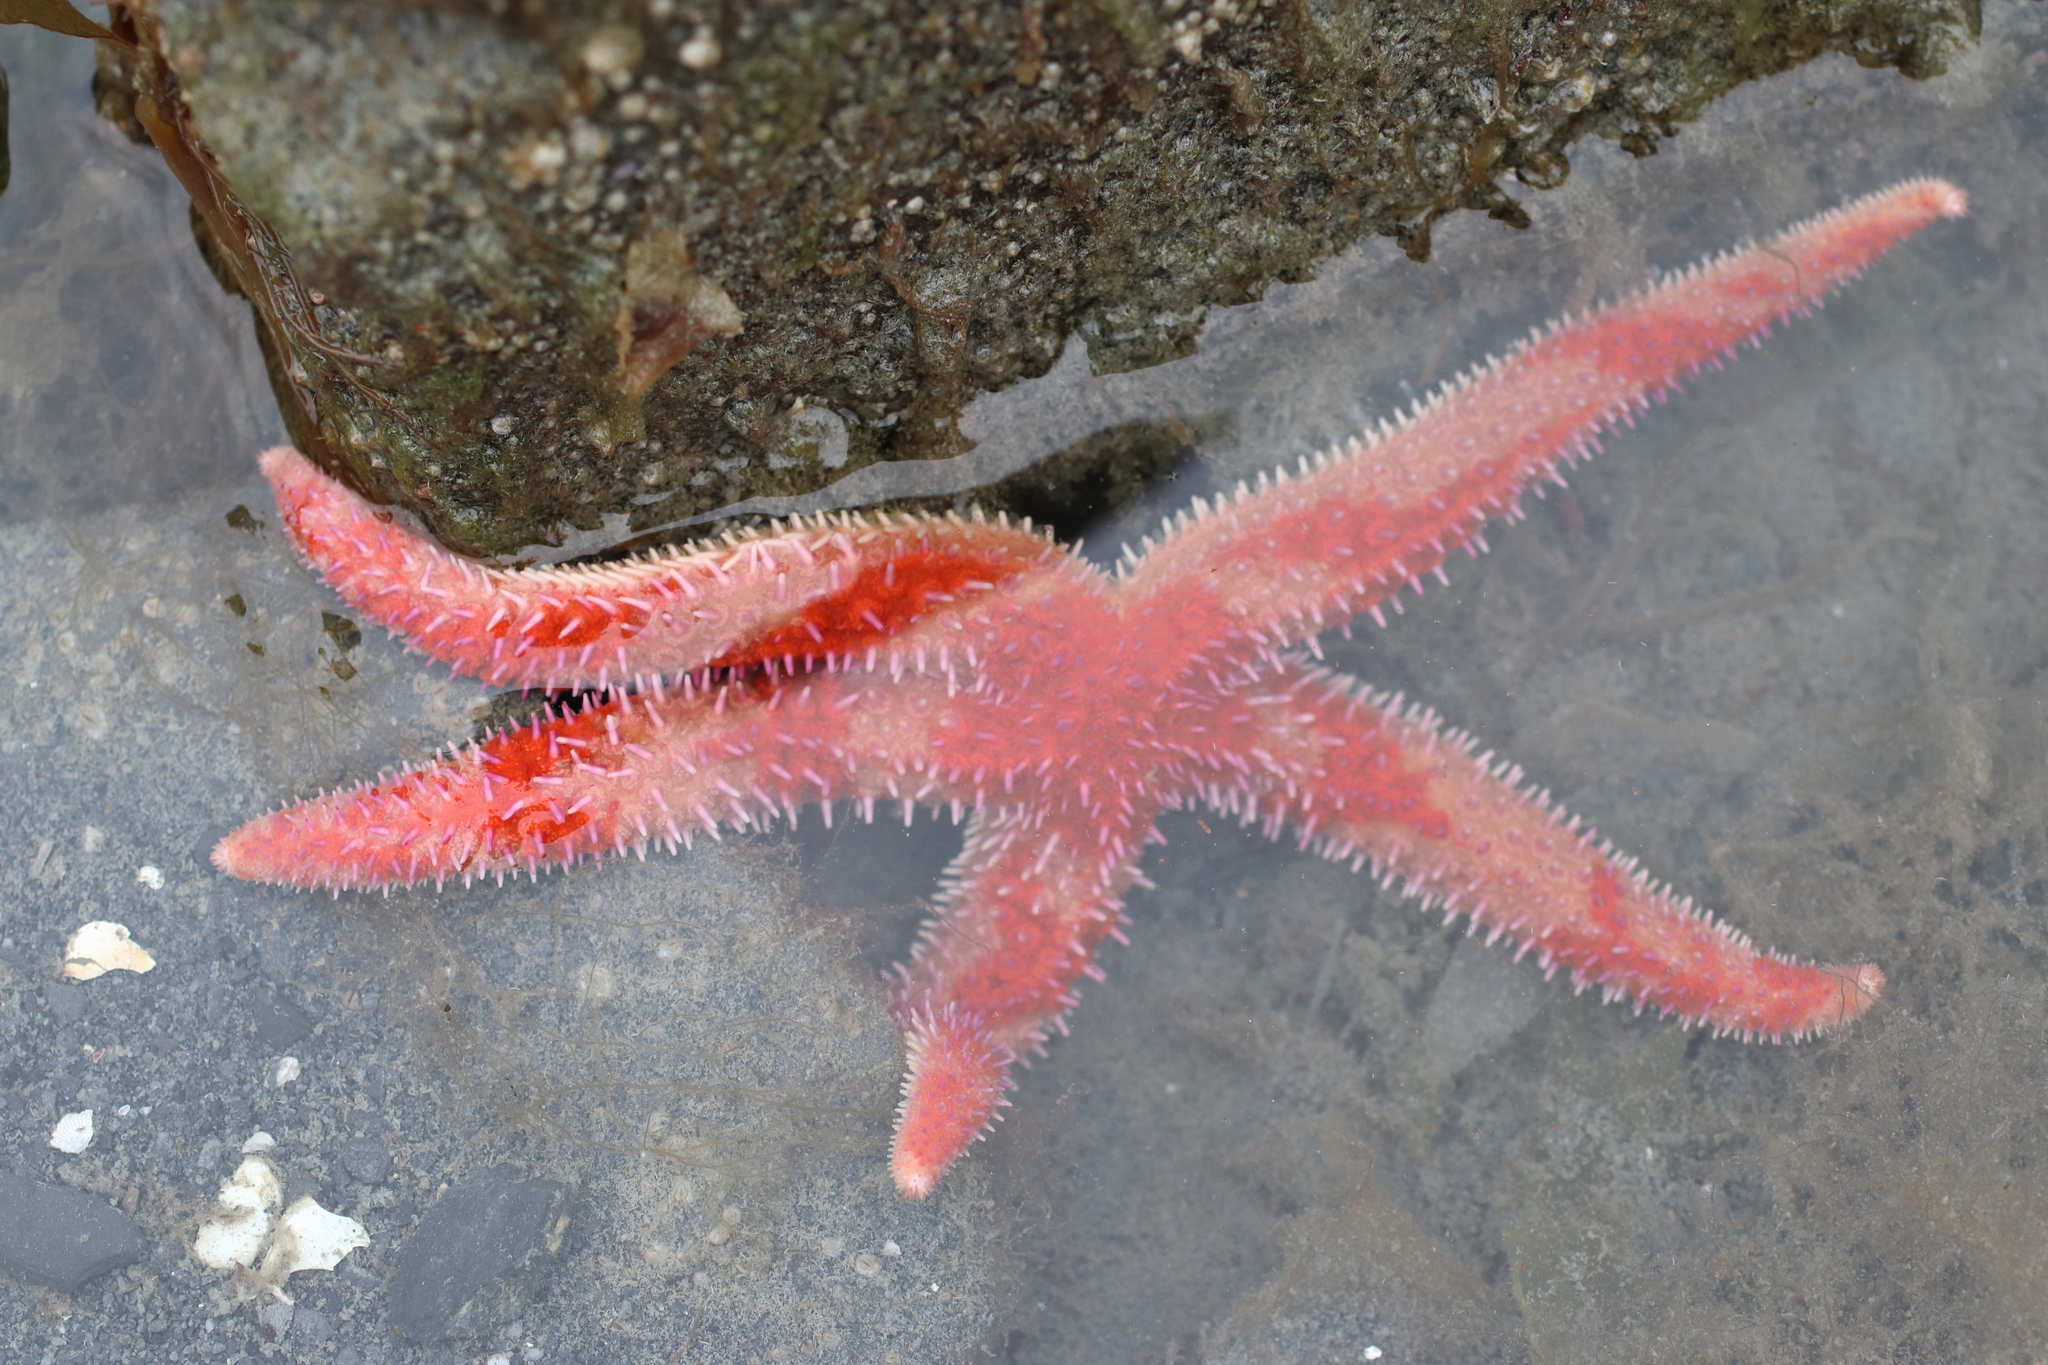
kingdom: Animalia
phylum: Echinodermata
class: Asteroidea
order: Forcipulatida
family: Asteriidae
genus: Orthasterias
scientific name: Orthasterias koehleri
